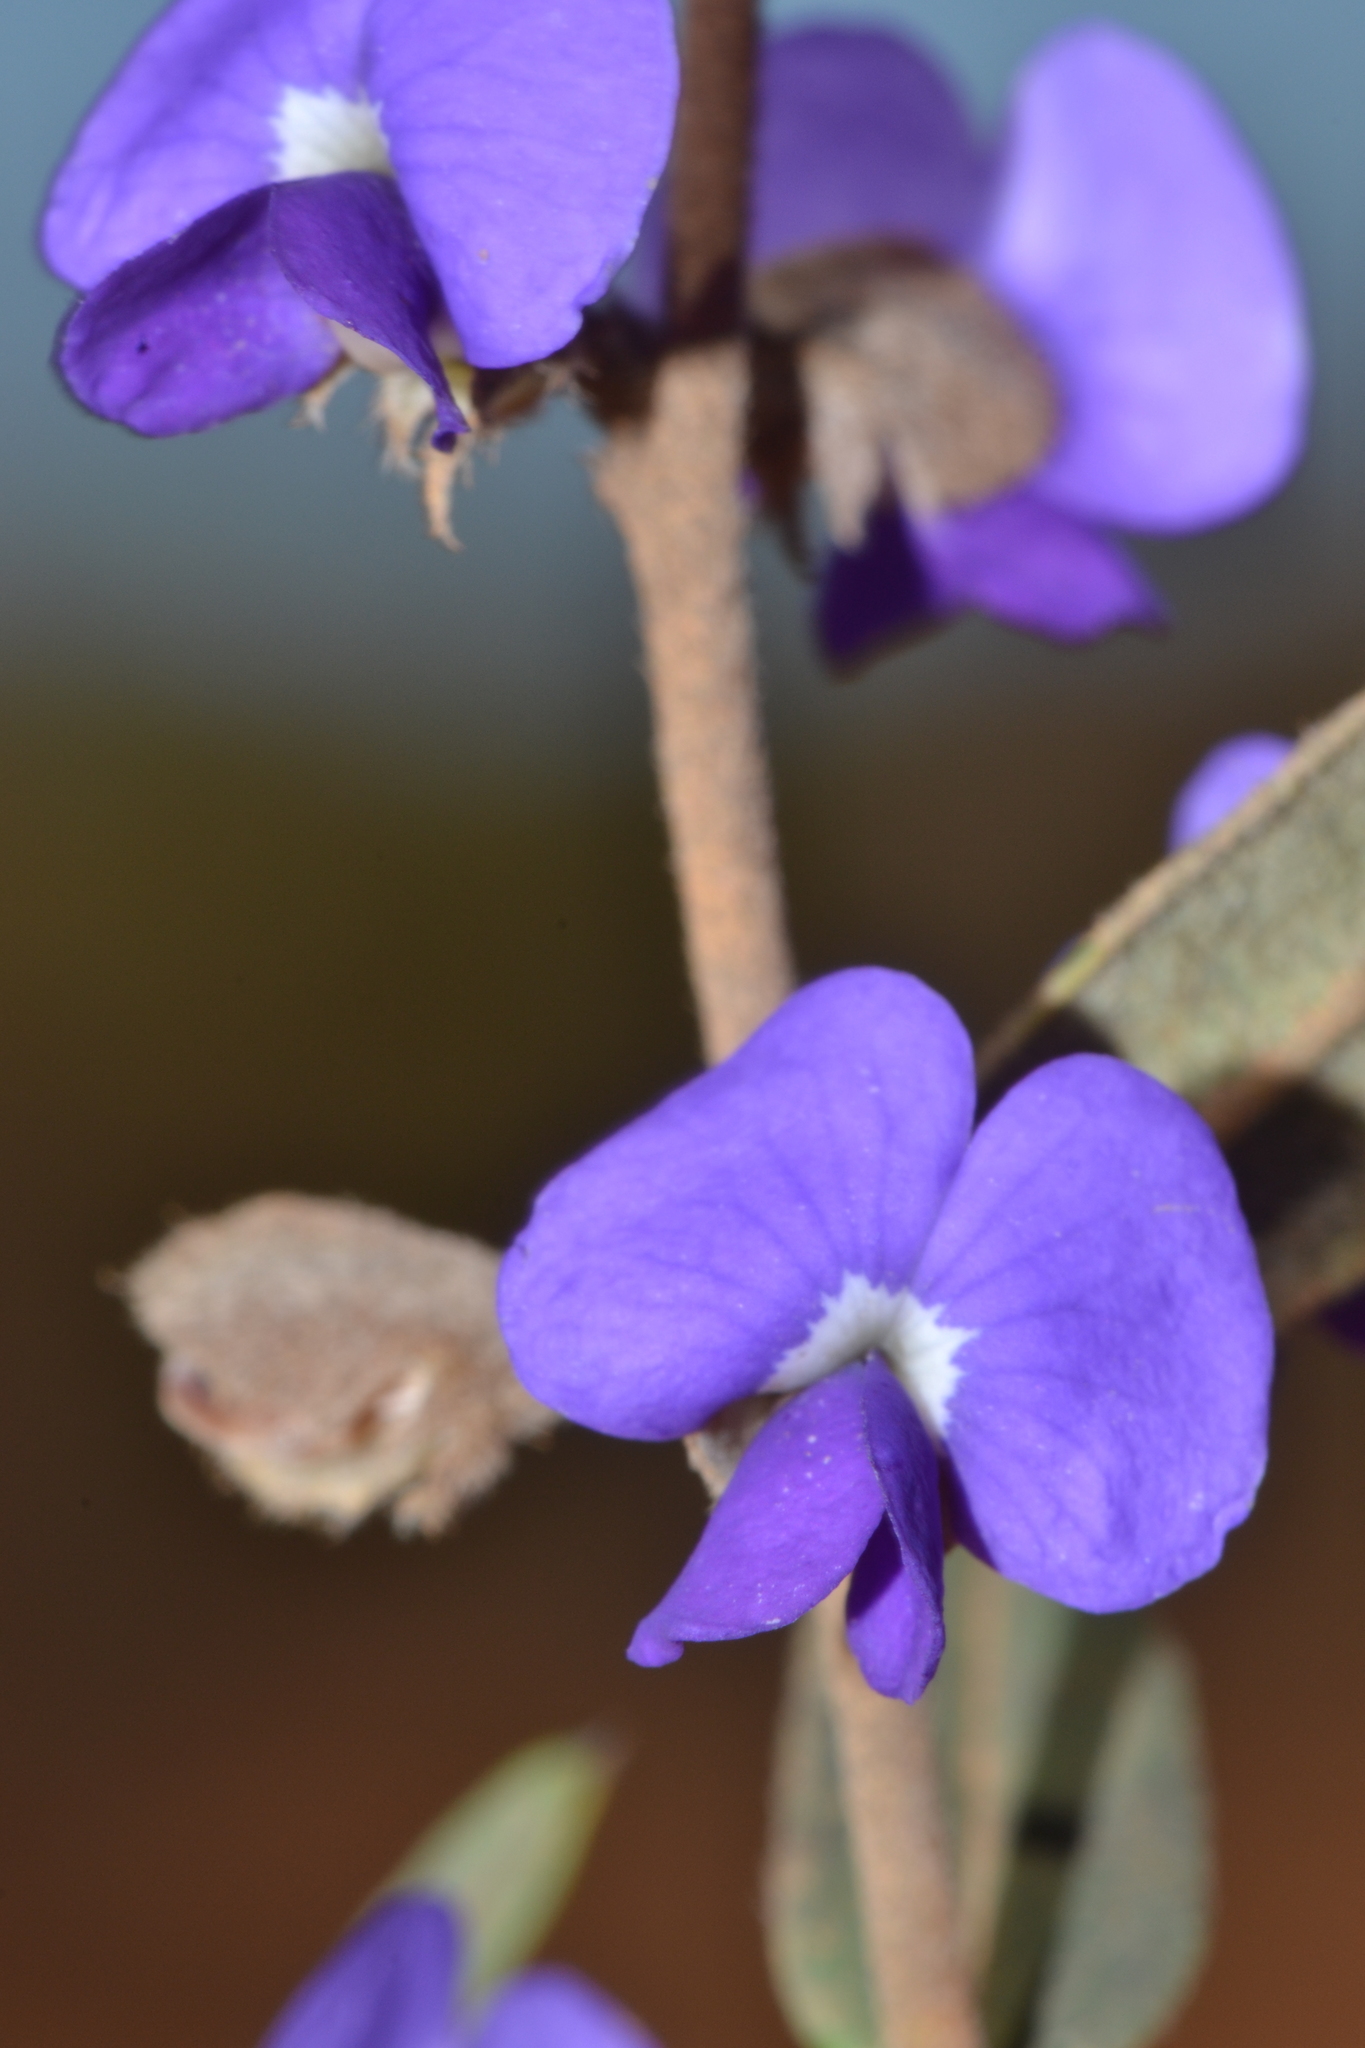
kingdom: Plantae
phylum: Tracheophyta
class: Magnoliopsida
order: Fabales
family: Fabaceae
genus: Hovea
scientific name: Hovea trisperma
